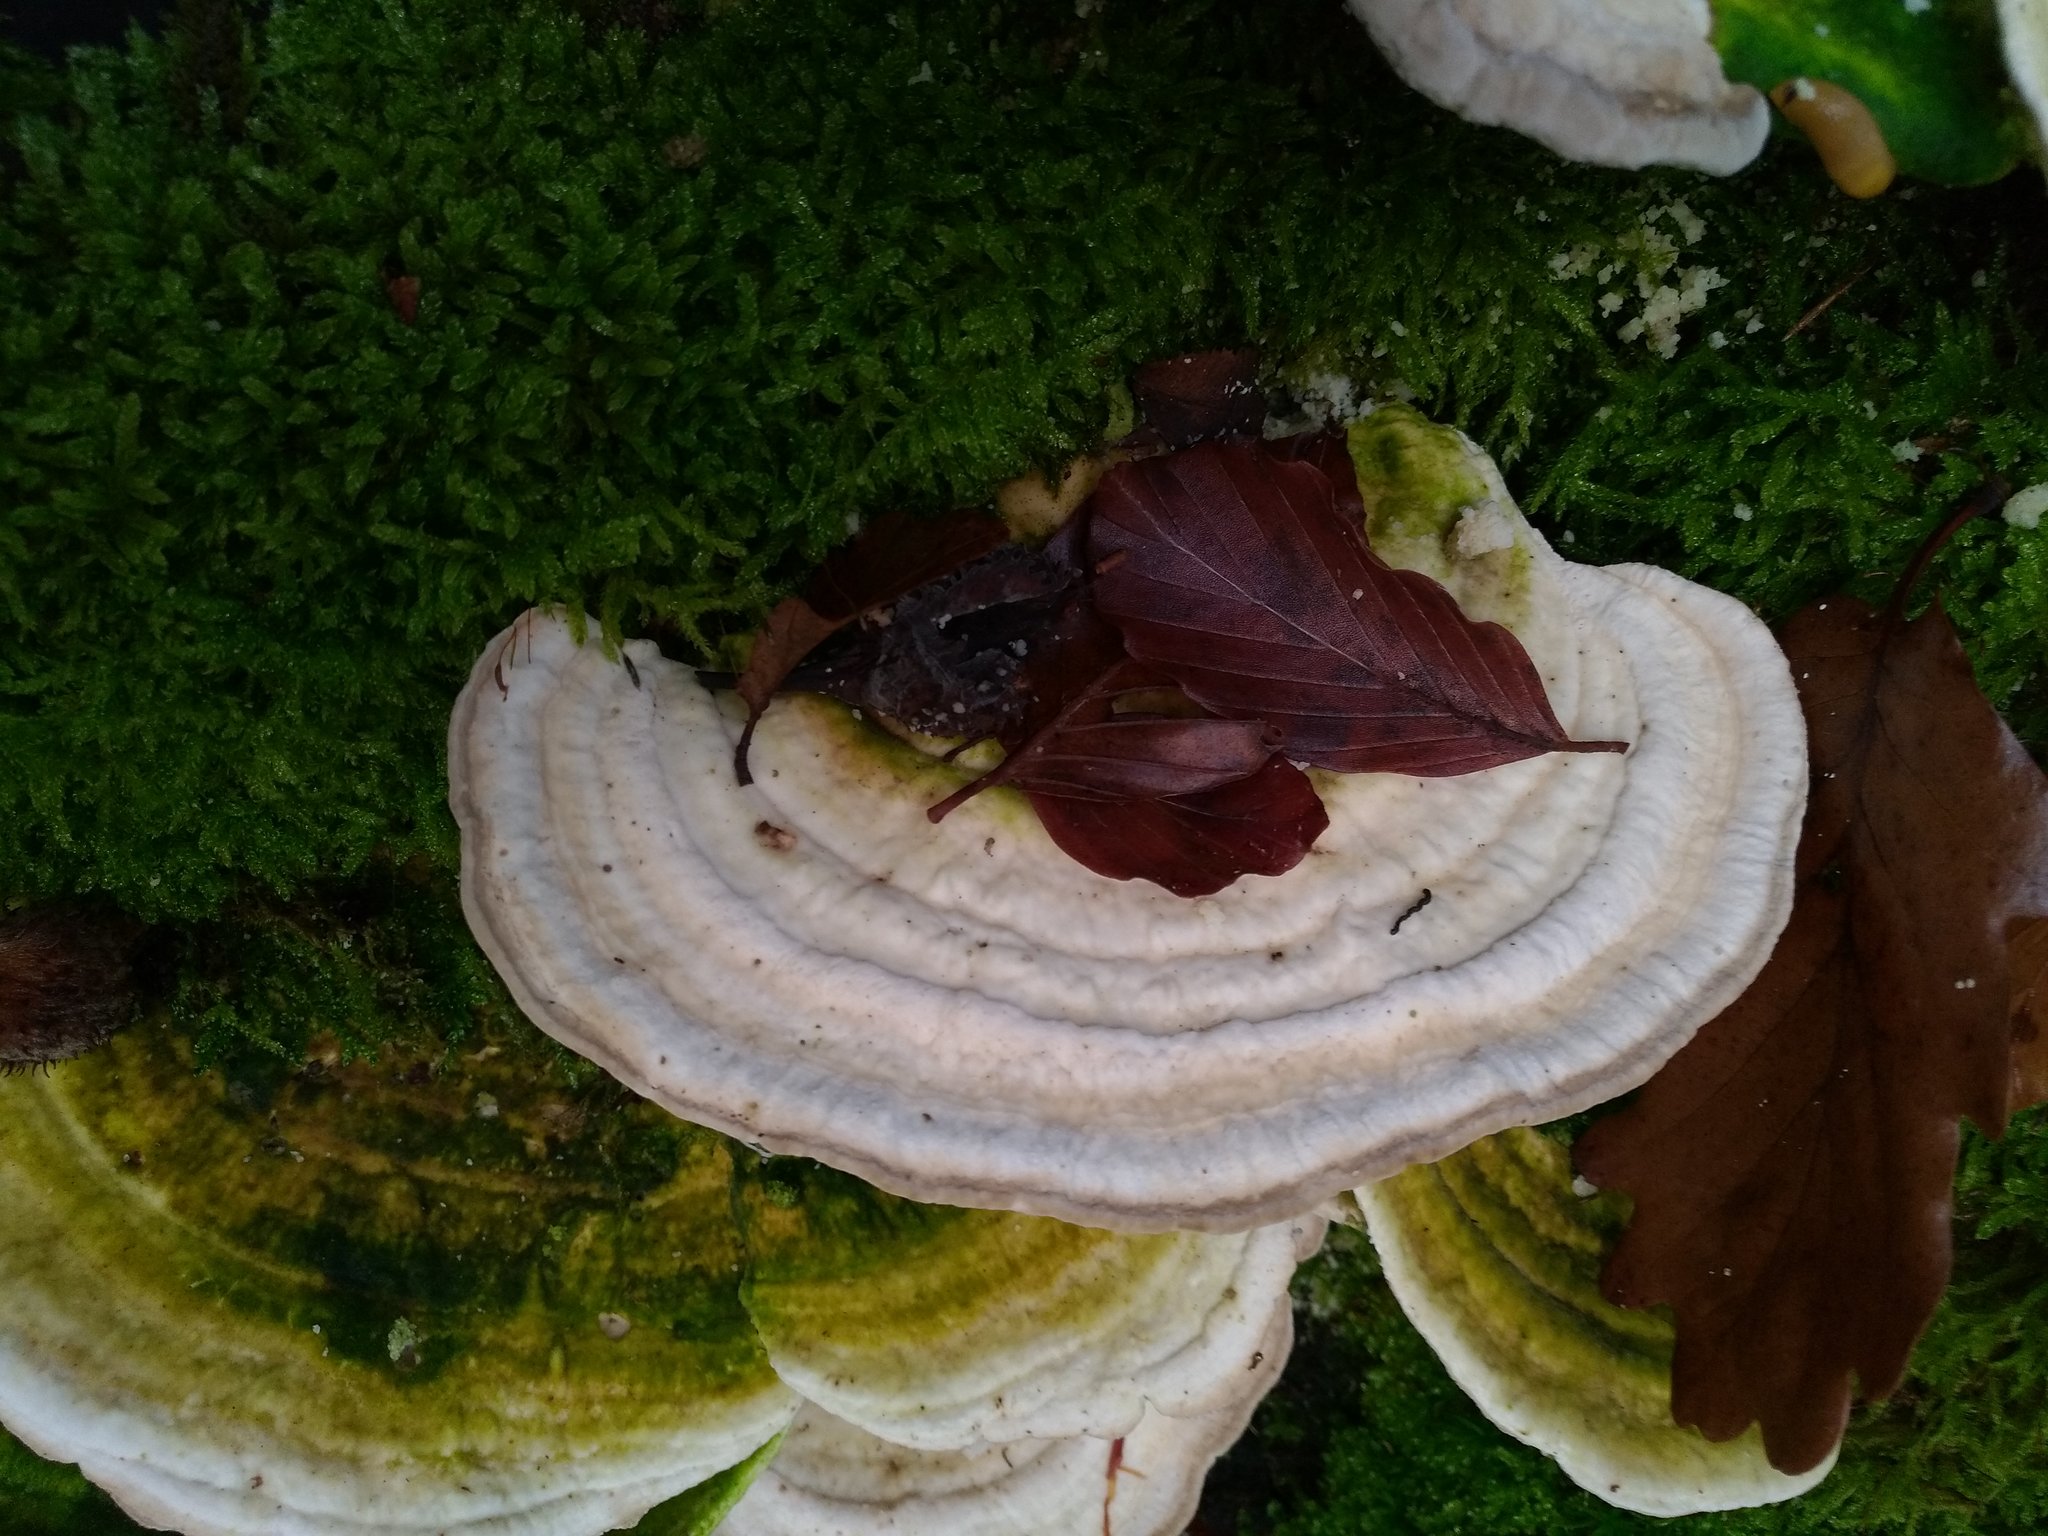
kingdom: Fungi
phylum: Basidiomycota
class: Agaricomycetes
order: Polyporales
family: Polyporaceae
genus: Trametes
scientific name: Trametes gibbosa
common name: Lumpy bracket
